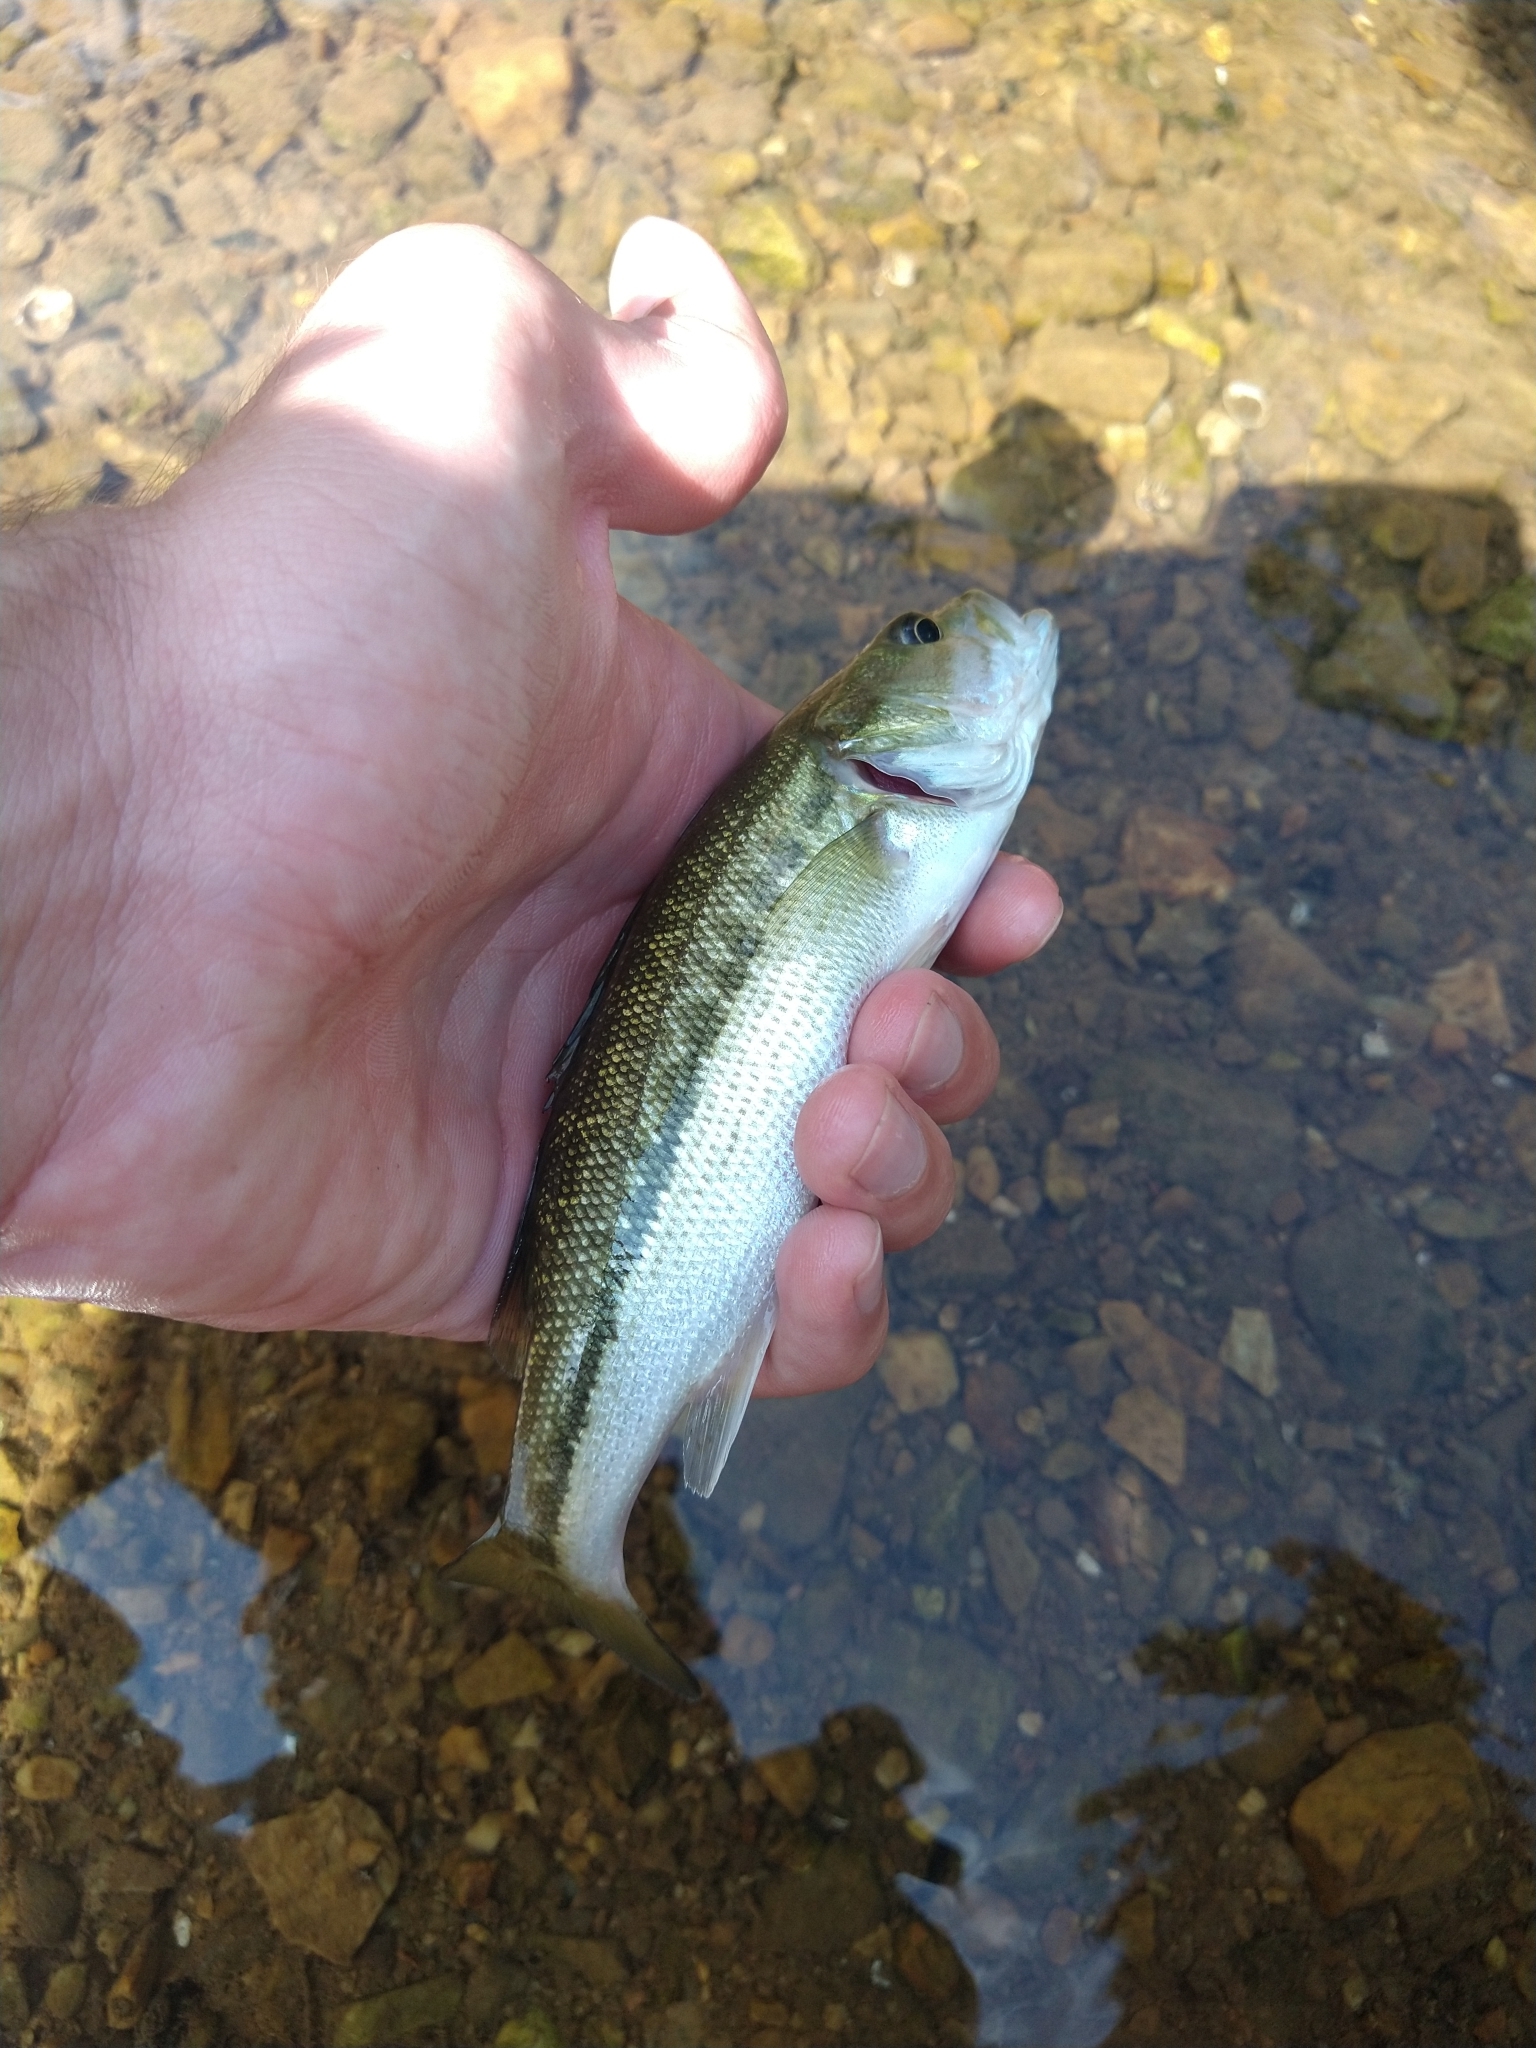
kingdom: Animalia
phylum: Chordata
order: Perciformes
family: Centrarchidae
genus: Micropterus
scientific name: Micropterus henshalli
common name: Alabama bass
